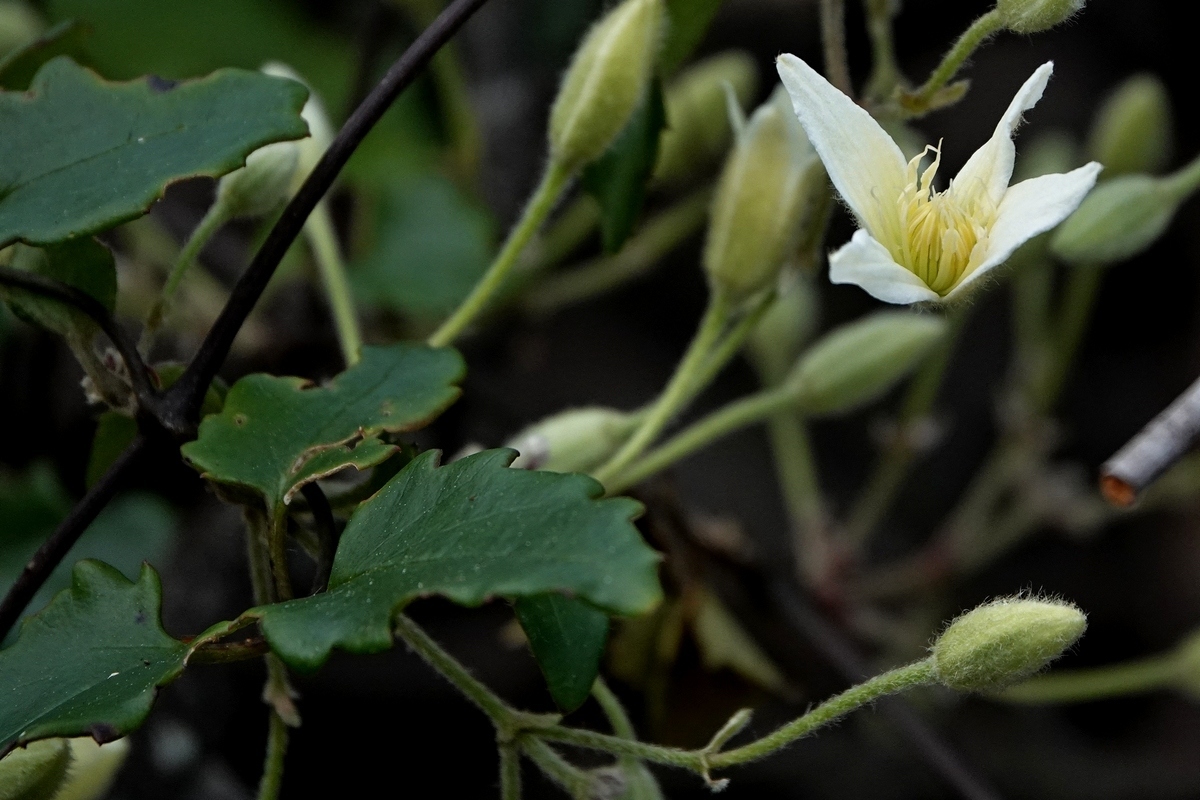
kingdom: Plantae
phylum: Tracheophyta
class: Magnoliopsida
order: Ranunculales
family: Ranunculaceae
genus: Clematis
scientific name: Clematis aristata
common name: Mountain clematis
